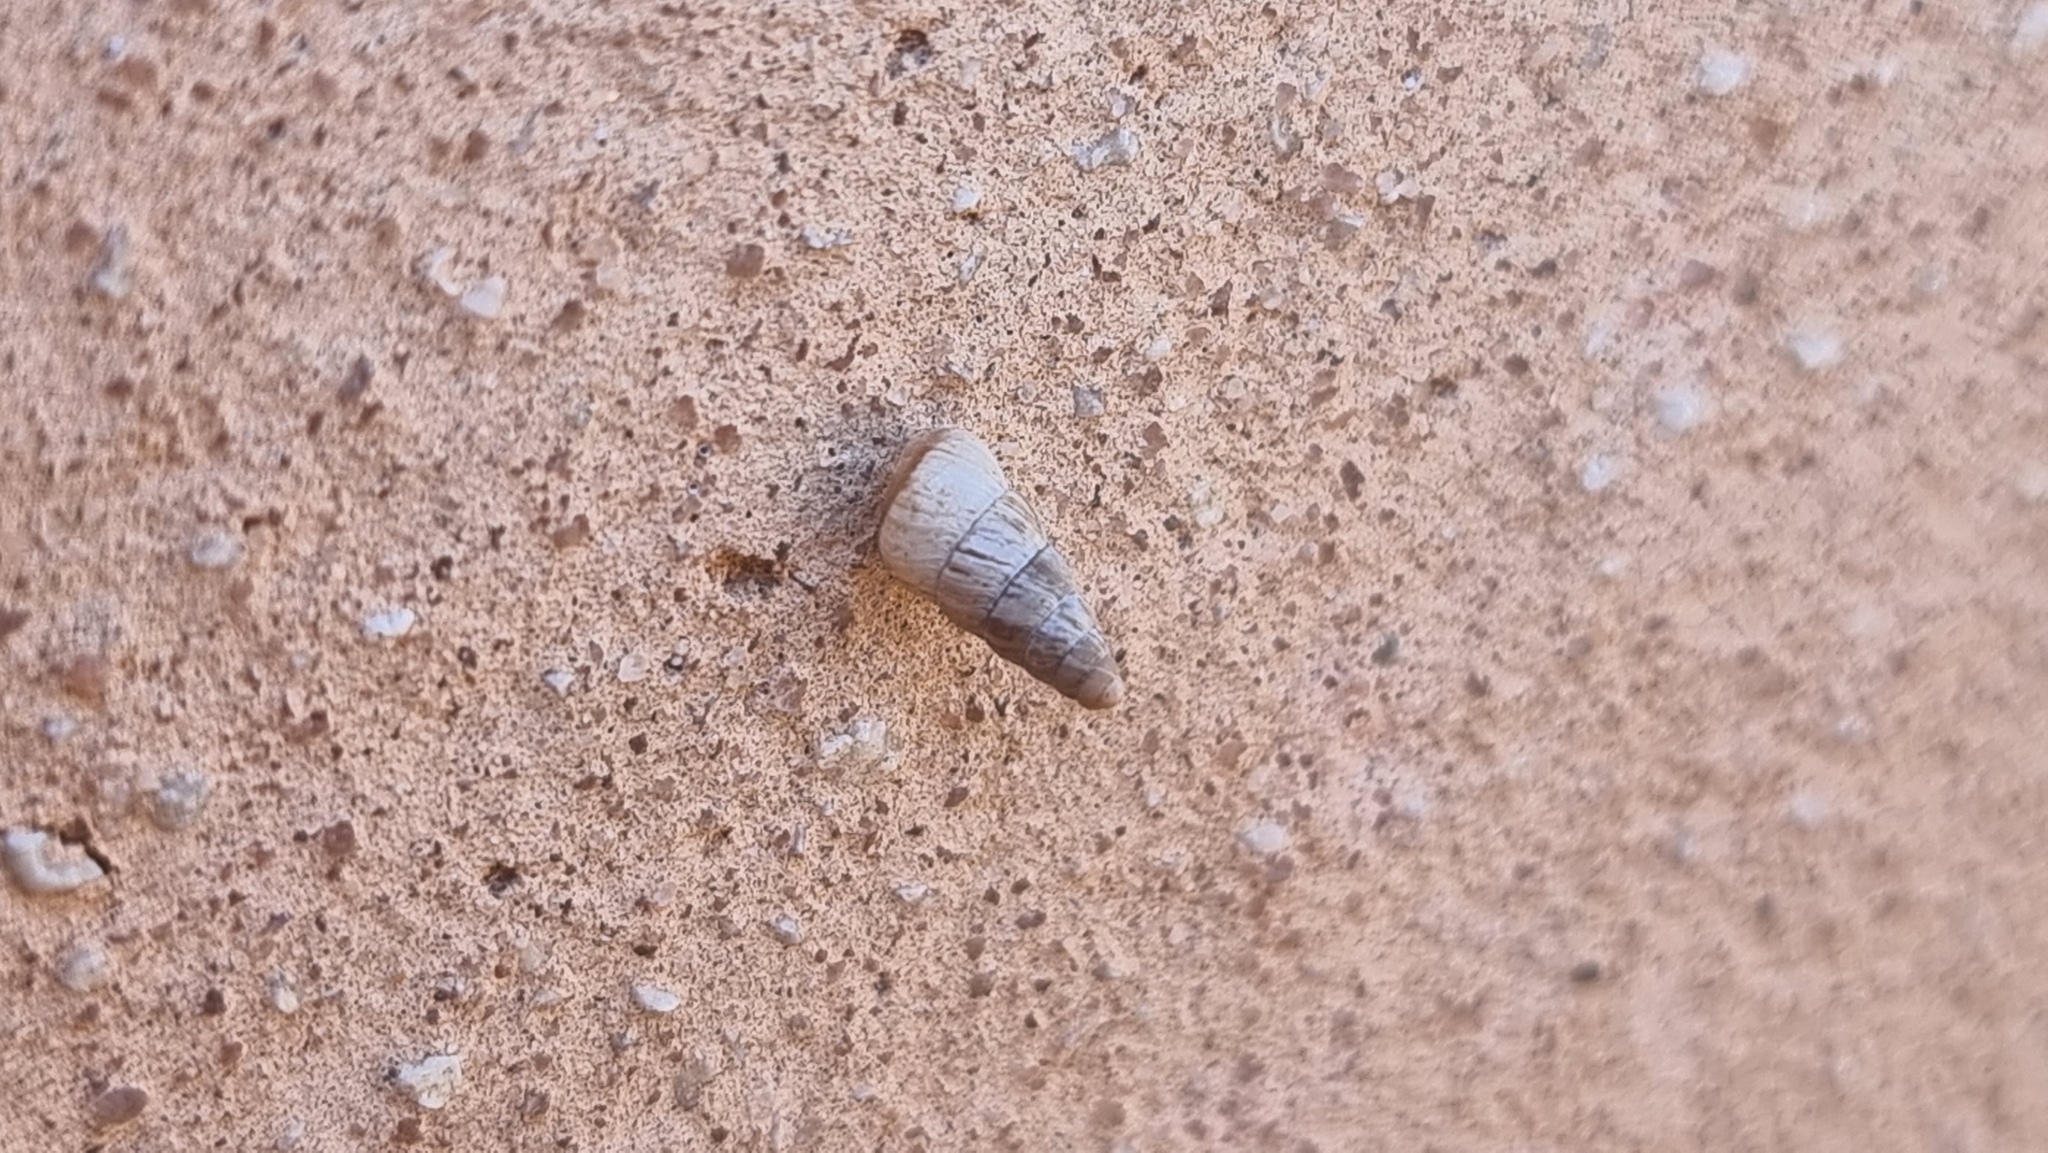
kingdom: Animalia
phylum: Mollusca
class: Gastropoda
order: Stylommatophora
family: Geomitridae
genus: Cochlicella
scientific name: Cochlicella acuta
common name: Pointed snail
